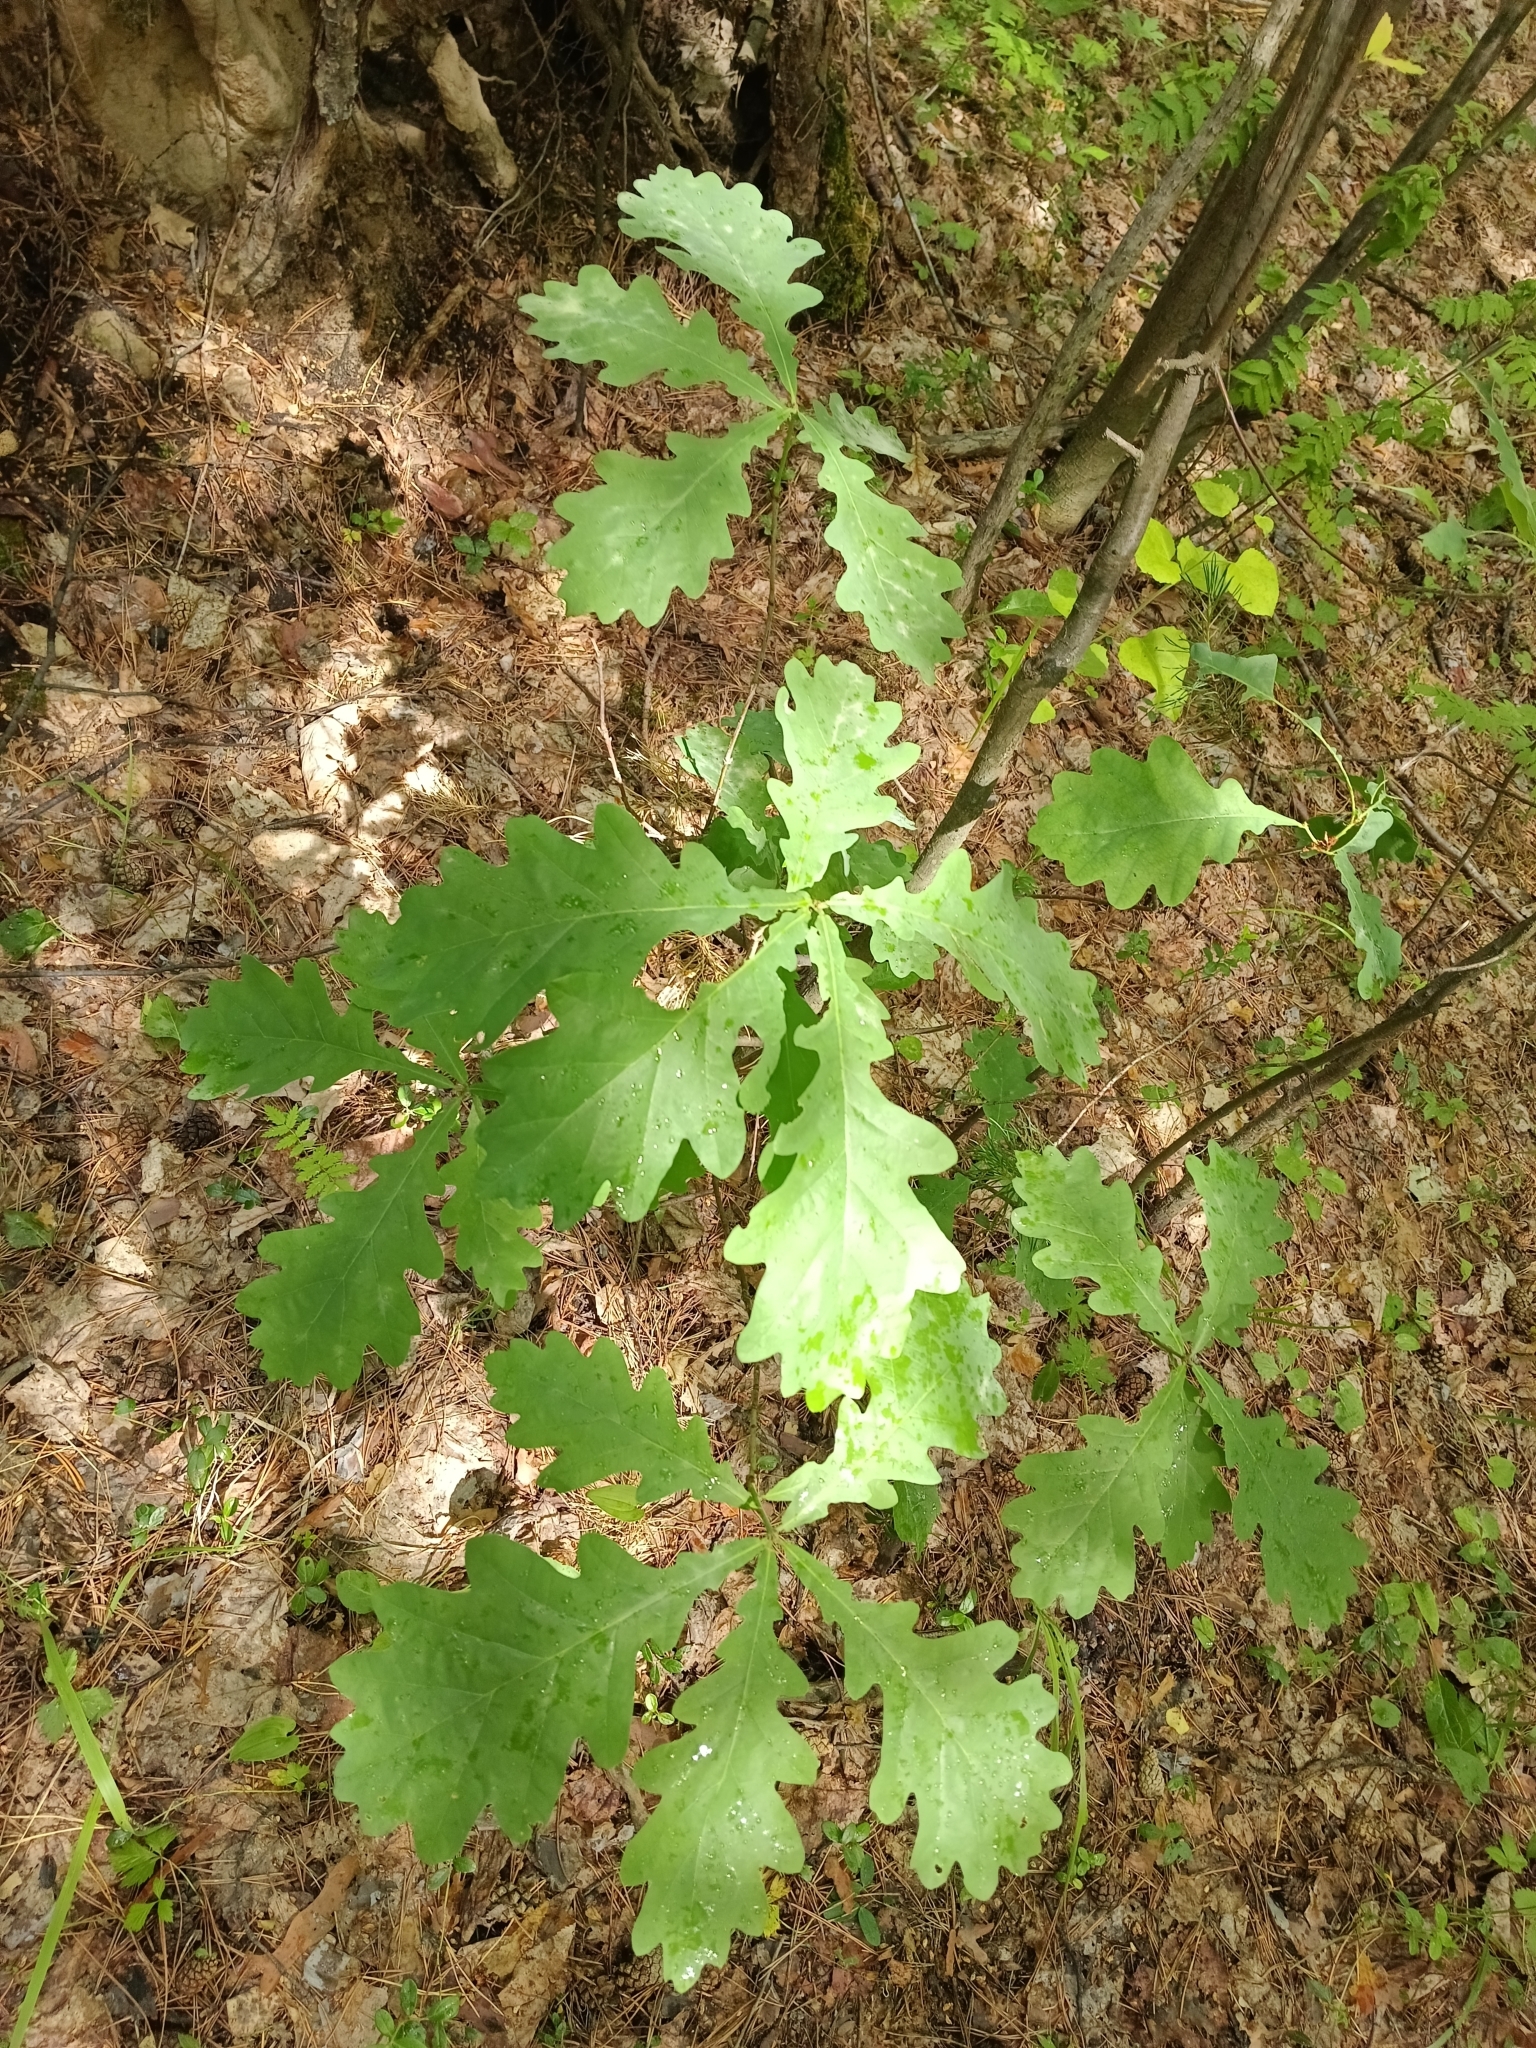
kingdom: Plantae
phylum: Tracheophyta
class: Magnoliopsida
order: Fagales
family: Fagaceae
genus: Quercus
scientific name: Quercus robur
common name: Pedunculate oak
